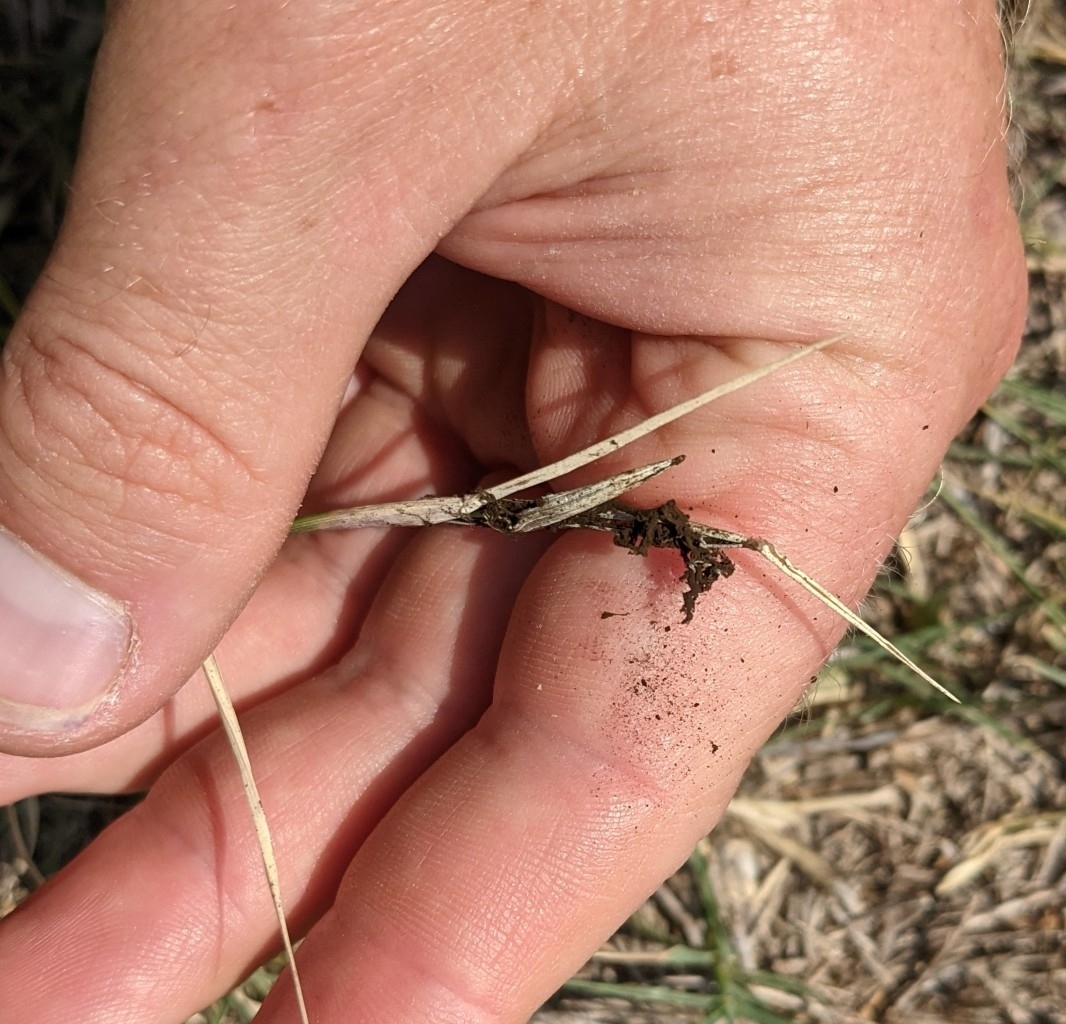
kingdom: Fungi
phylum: Basidiomycota
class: Ustilaginomycetes
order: Ustilaginales
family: Ustilaginaceae
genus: Ustilago
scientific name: Ustilago cynodontis
